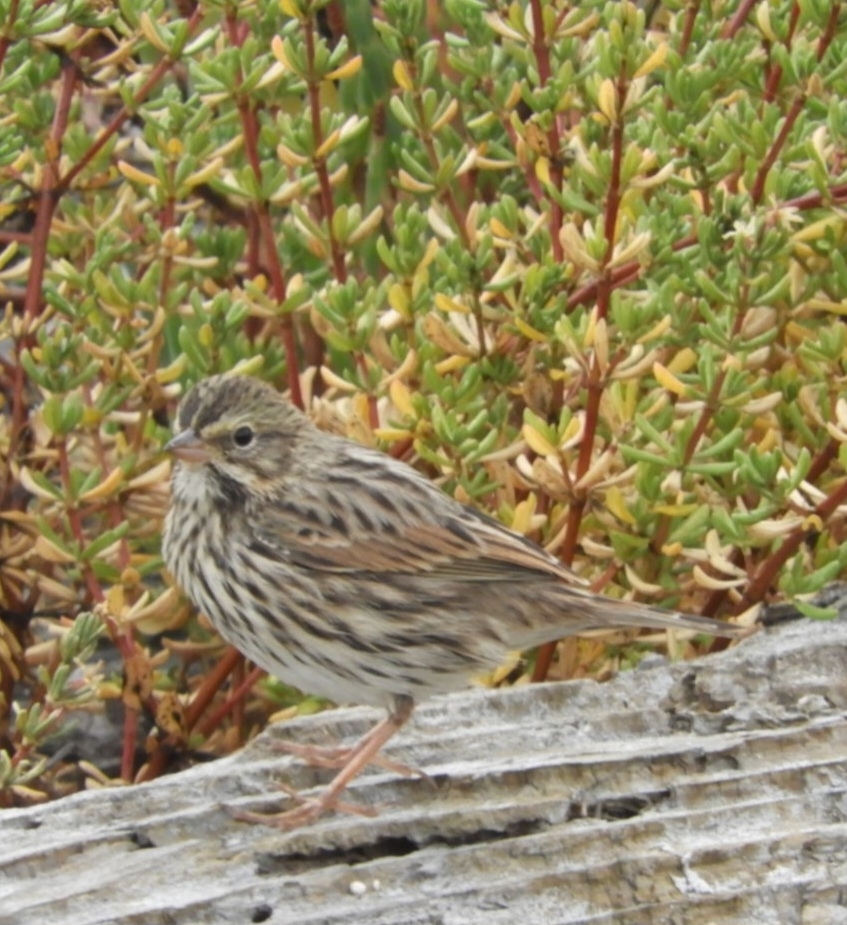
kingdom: Animalia
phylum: Chordata
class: Aves
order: Passeriformes
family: Passerellidae
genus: Passerculus
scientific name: Passerculus sandwichensis
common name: Savannah sparrow
